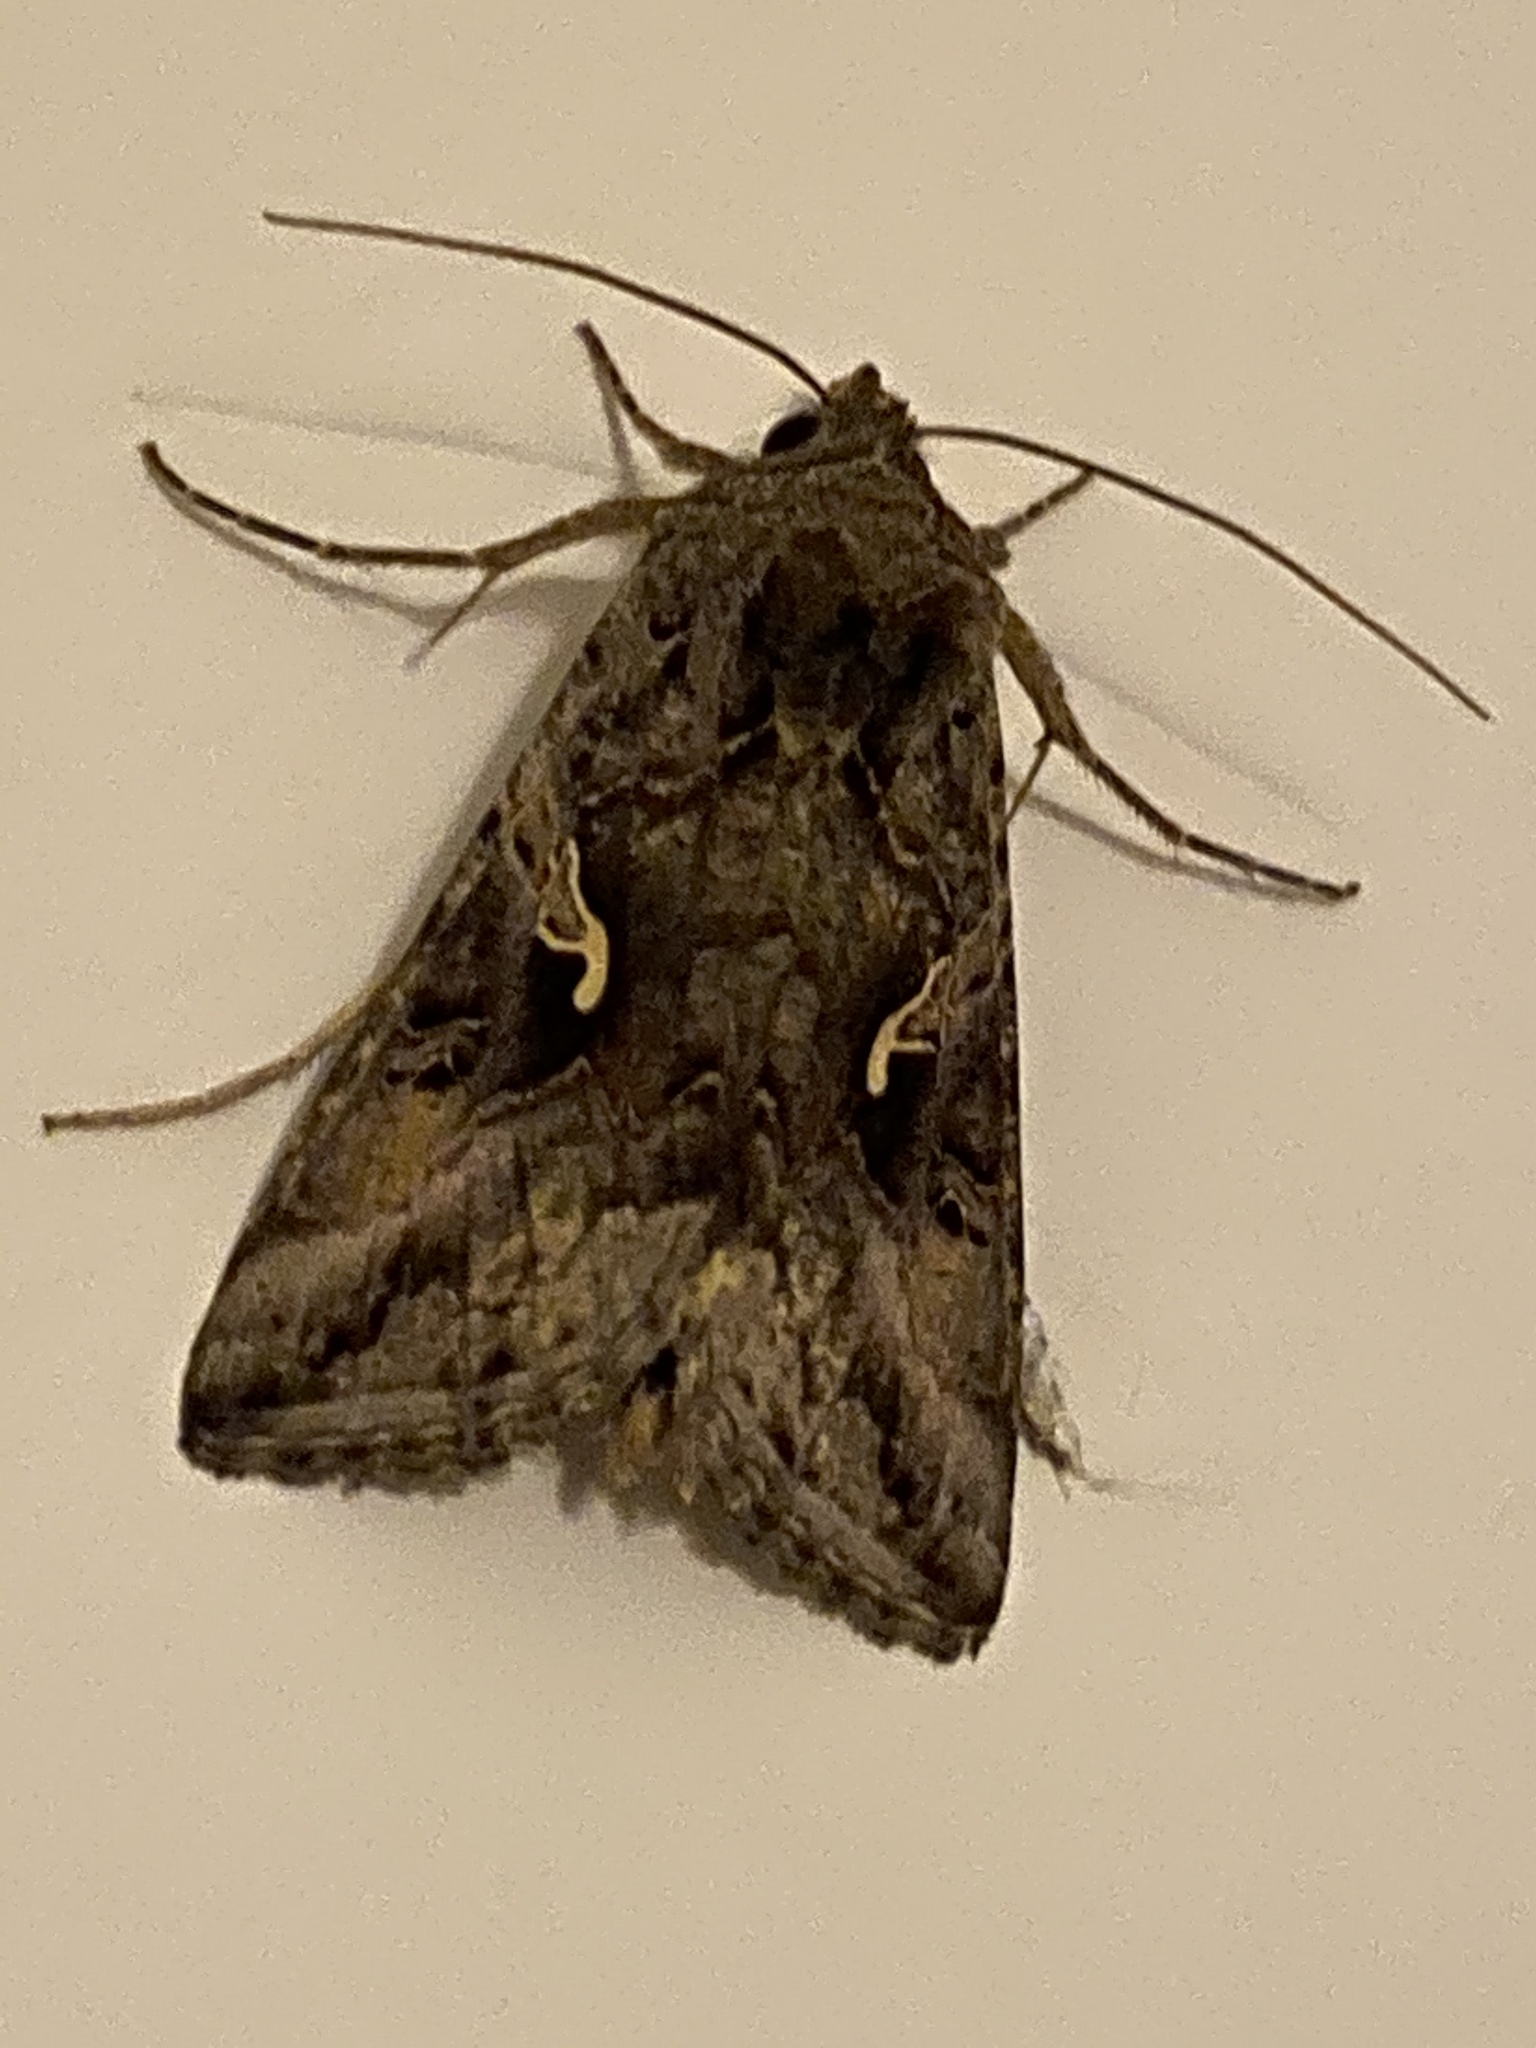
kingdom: Animalia
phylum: Arthropoda
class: Insecta
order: Lepidoptera
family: Noctuidae
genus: Autographa
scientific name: Autographa gamma
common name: Silver y
